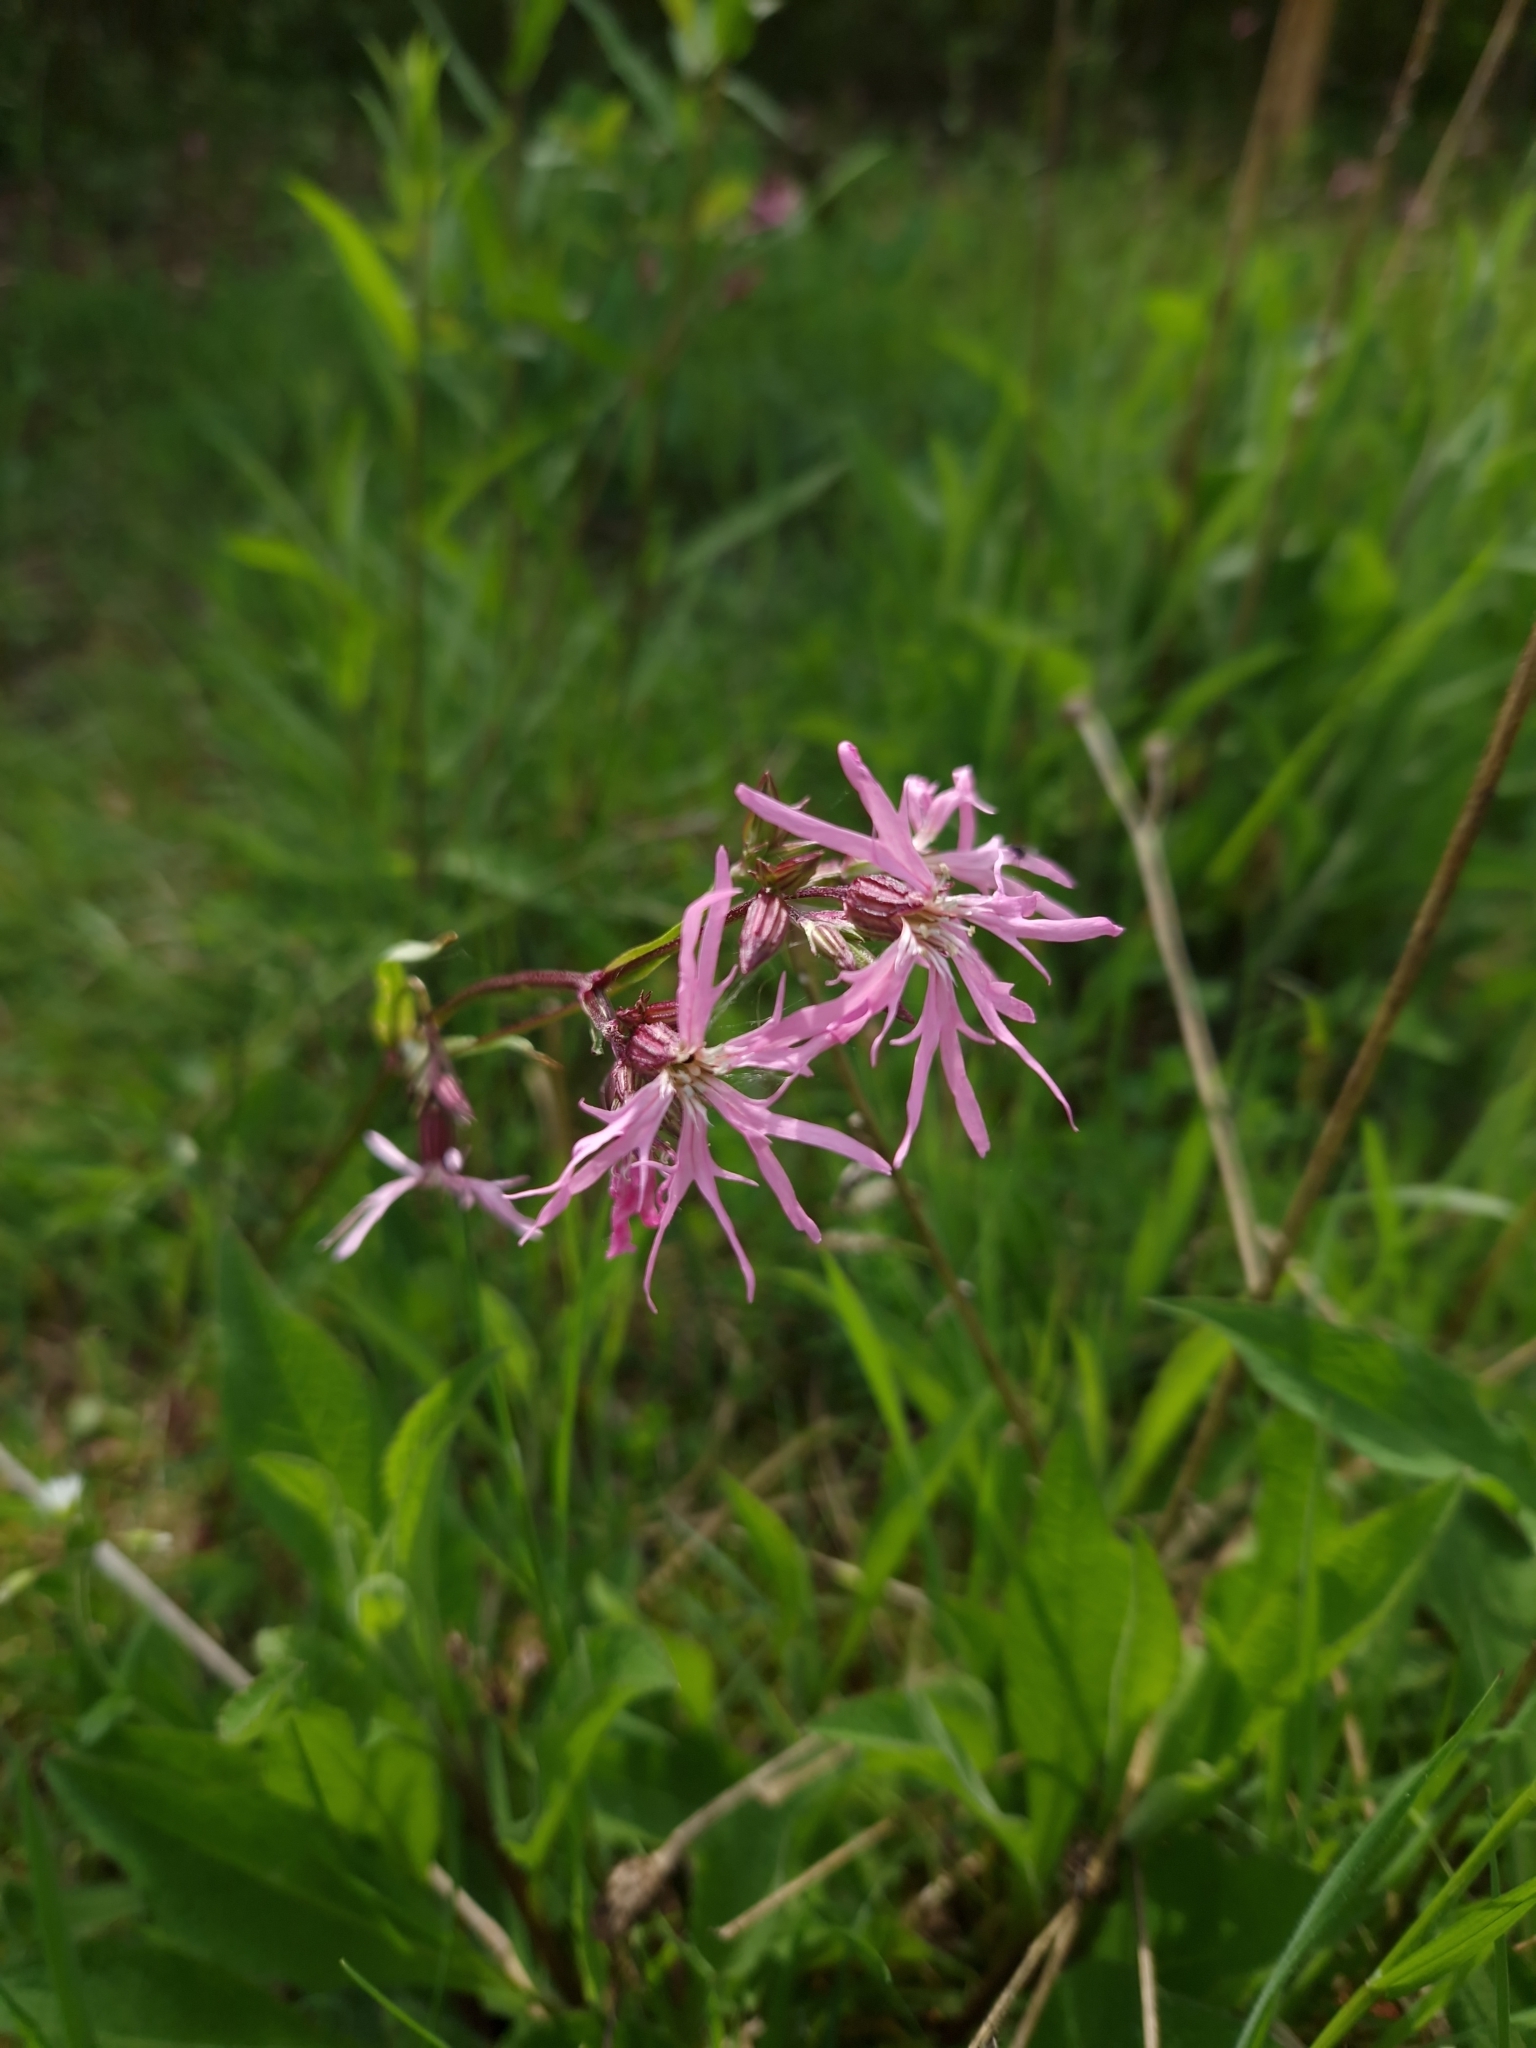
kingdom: Plantae
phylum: Tracheophyta
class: Magnoliopsida
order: Caryophyllales
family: Caryophyllaceae
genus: Silene
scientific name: Silene flos-cuculi
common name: Ragged-robin
